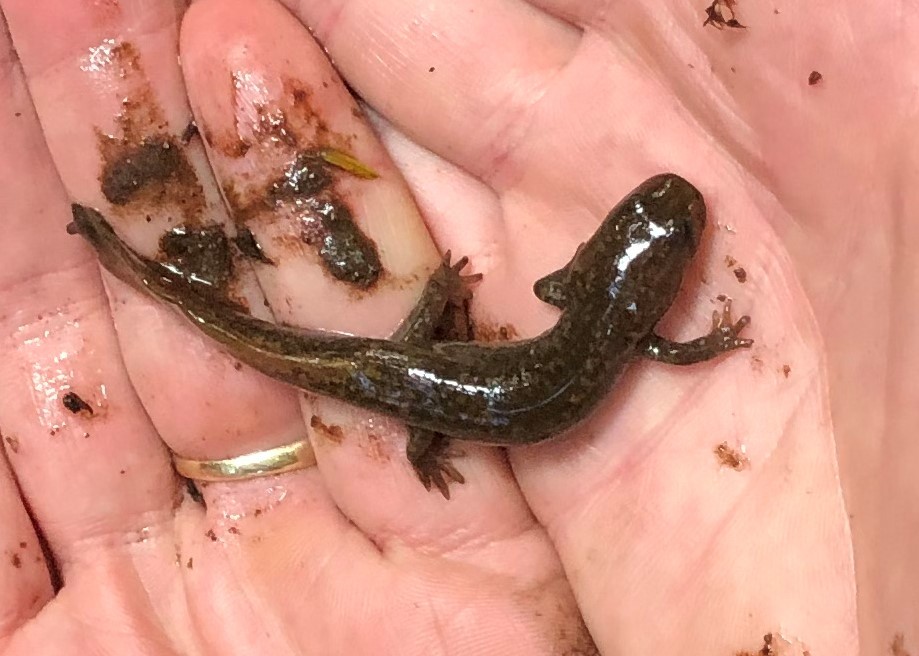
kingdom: Animalia
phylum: Chordata
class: Amphibia
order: Caudata
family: Ambystomatidae
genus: Dicamptodon
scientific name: Dicamptodon tenebrosus
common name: Coastal giant salamander
